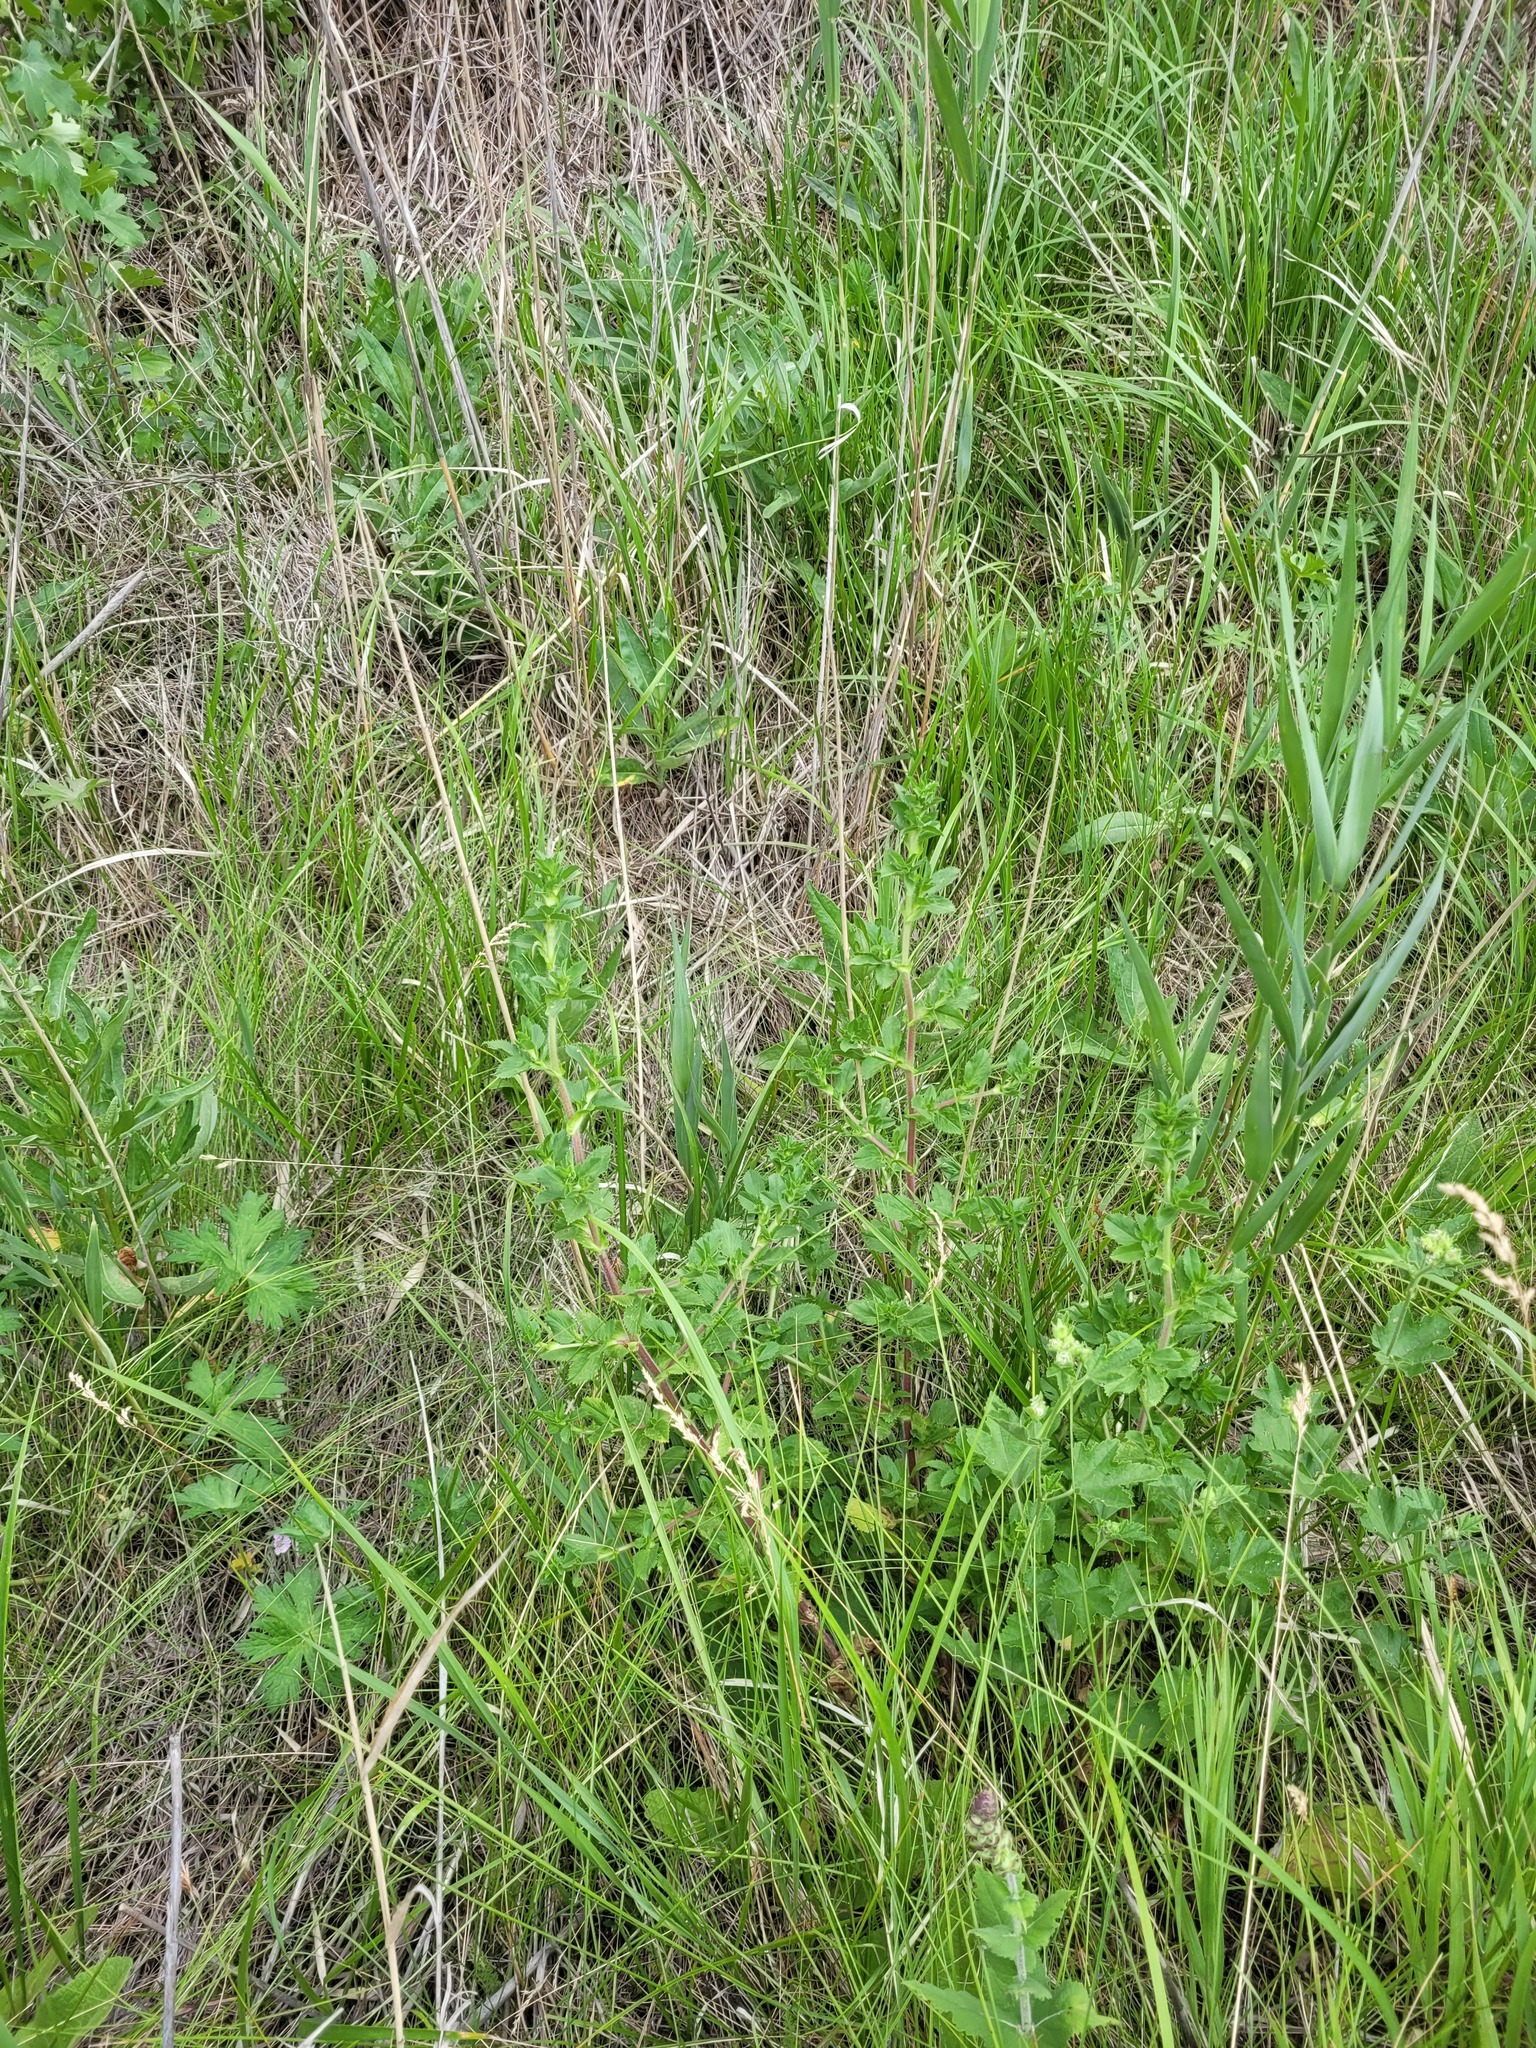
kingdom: Plantae
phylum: Tracheophyta
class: Magnoliopsida
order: Fabales
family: Fabaceae
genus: Ononis
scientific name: Ononis arvensis
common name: Field restharrow
